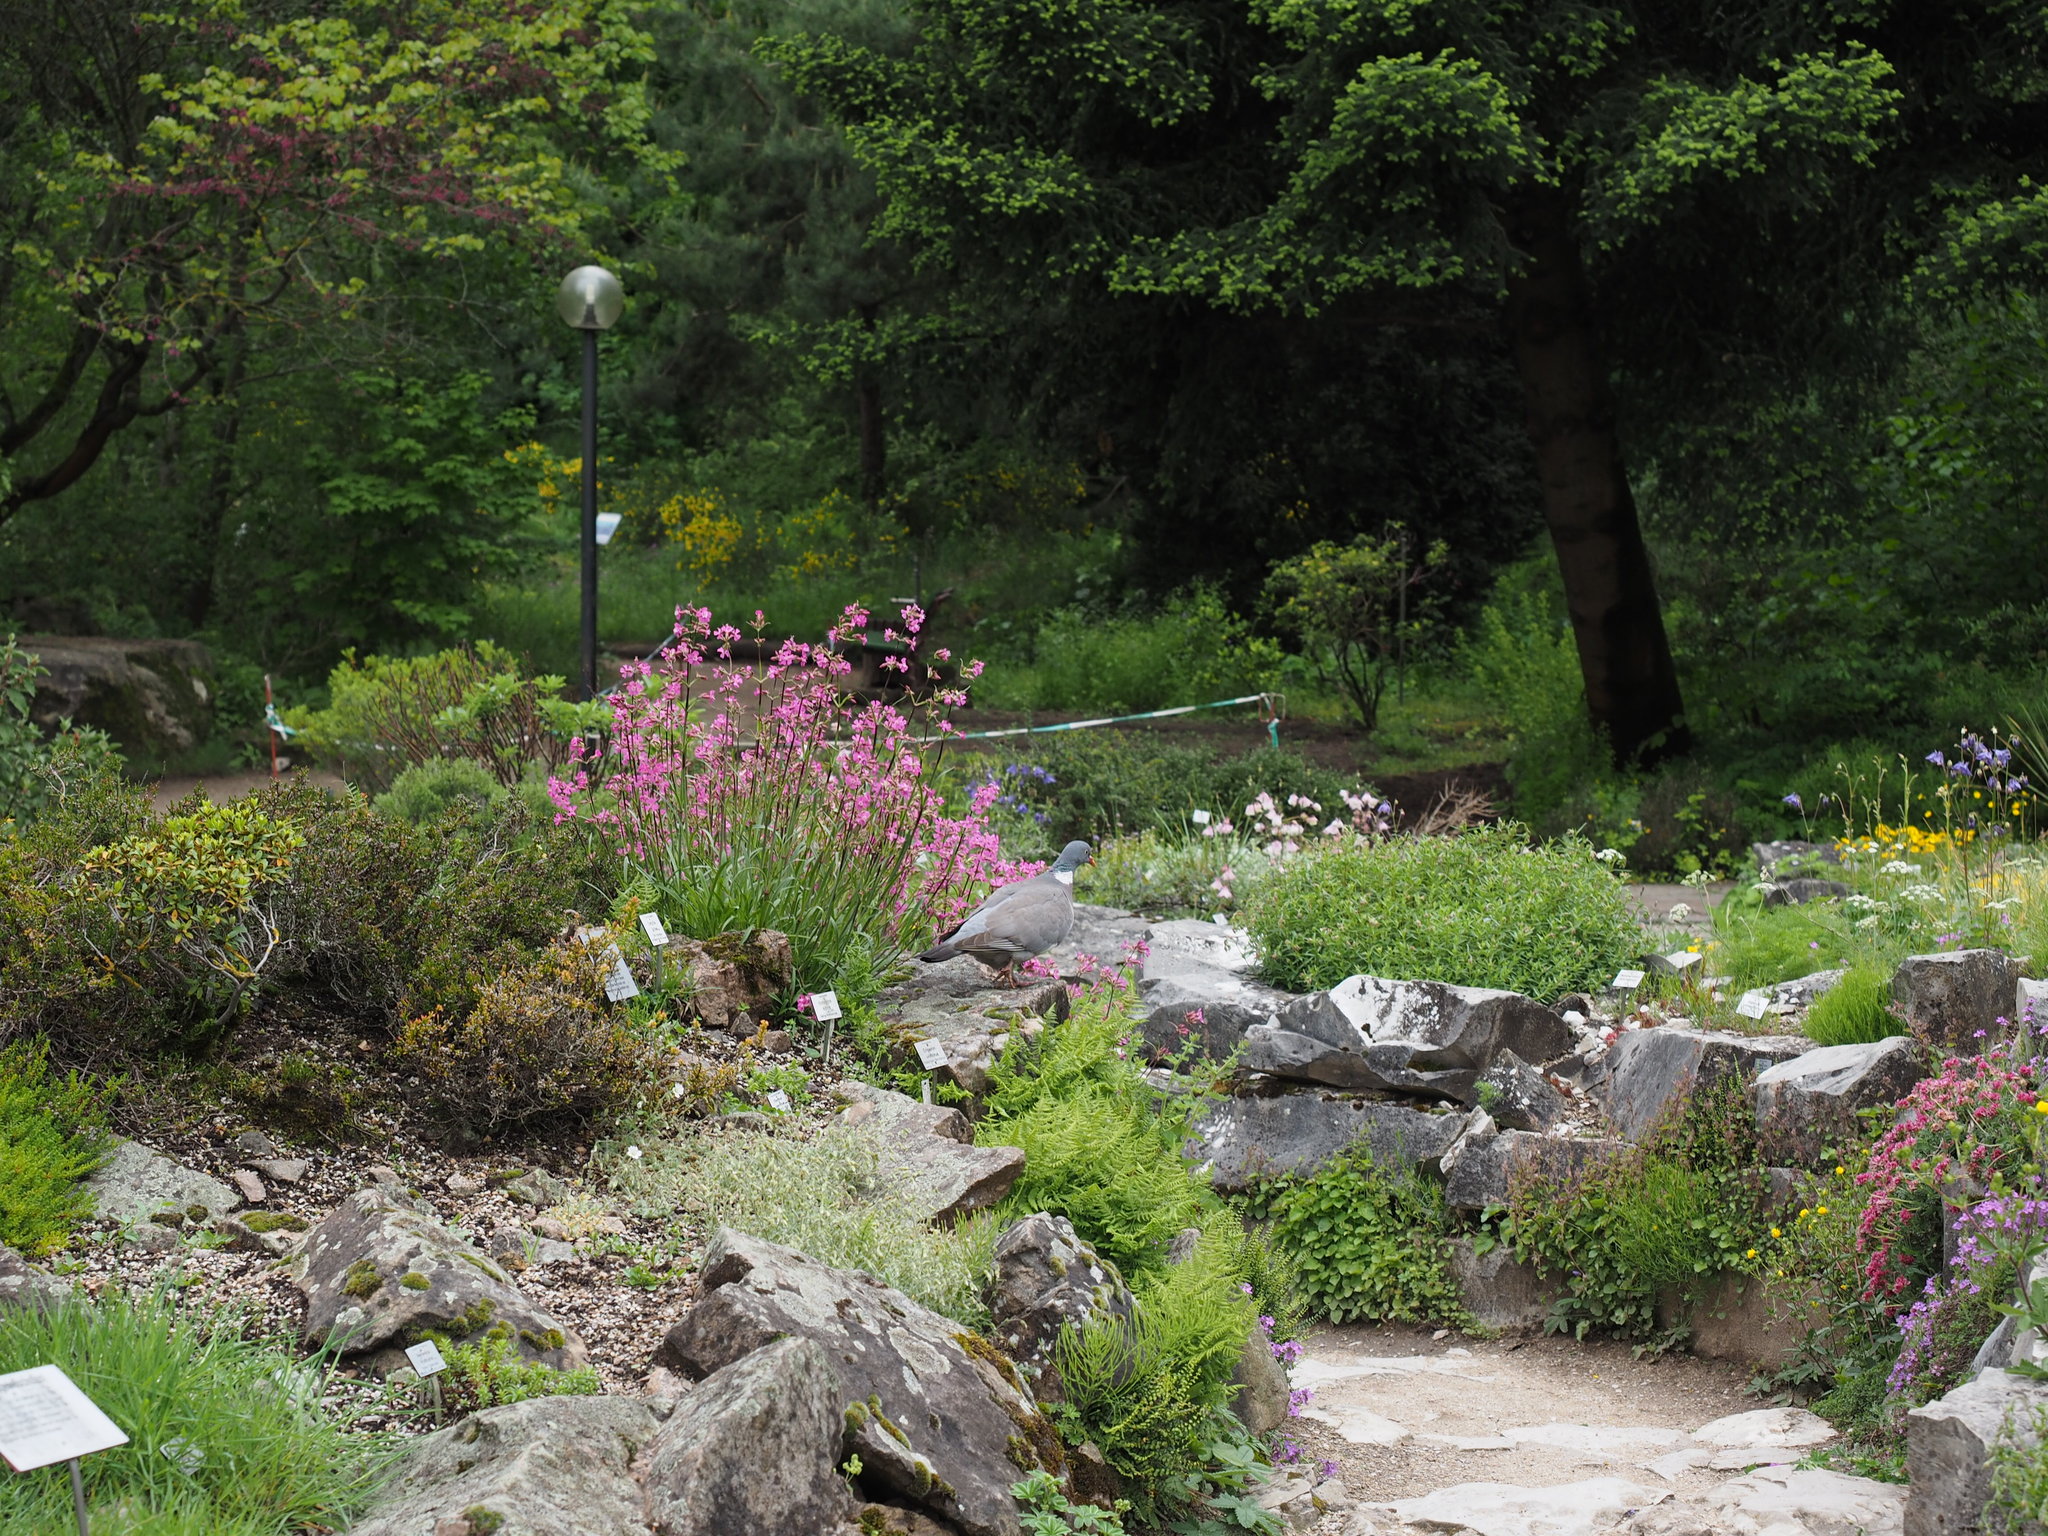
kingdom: Animalia
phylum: Chordata
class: Aves
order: Columbiformes
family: Columbidae
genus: Columba
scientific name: Columba palumbus
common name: Common wood pigeon
